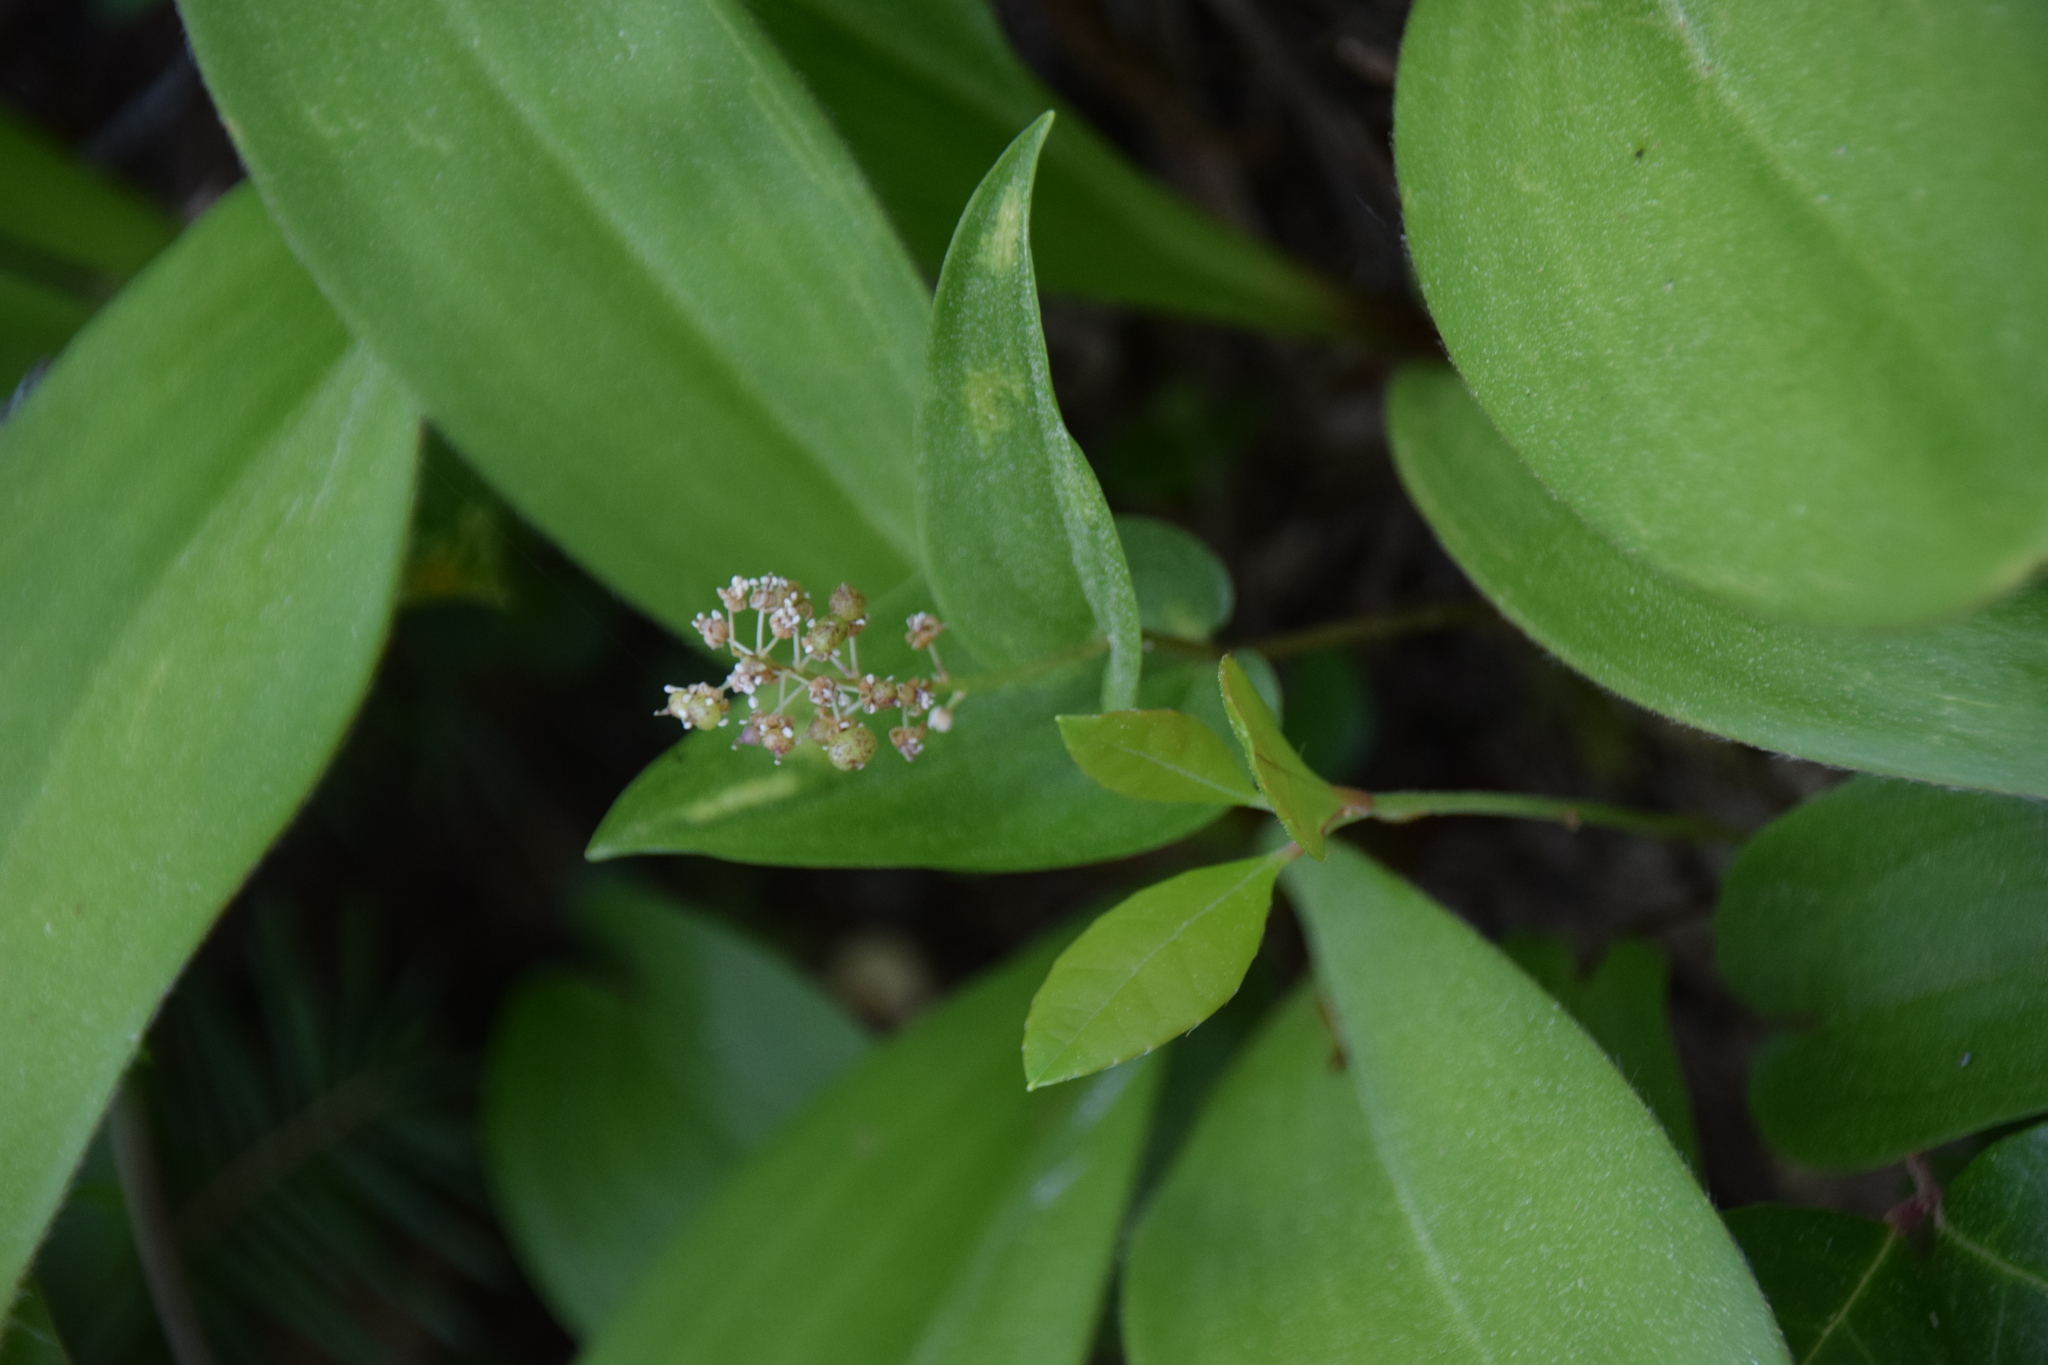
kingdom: Plantae
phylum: Tracheophyta
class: Liliopsida
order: Asparagales
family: Asparagaceae
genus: Maianthemum
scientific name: Maianthemum canadense
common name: False lily-of-the-valley
